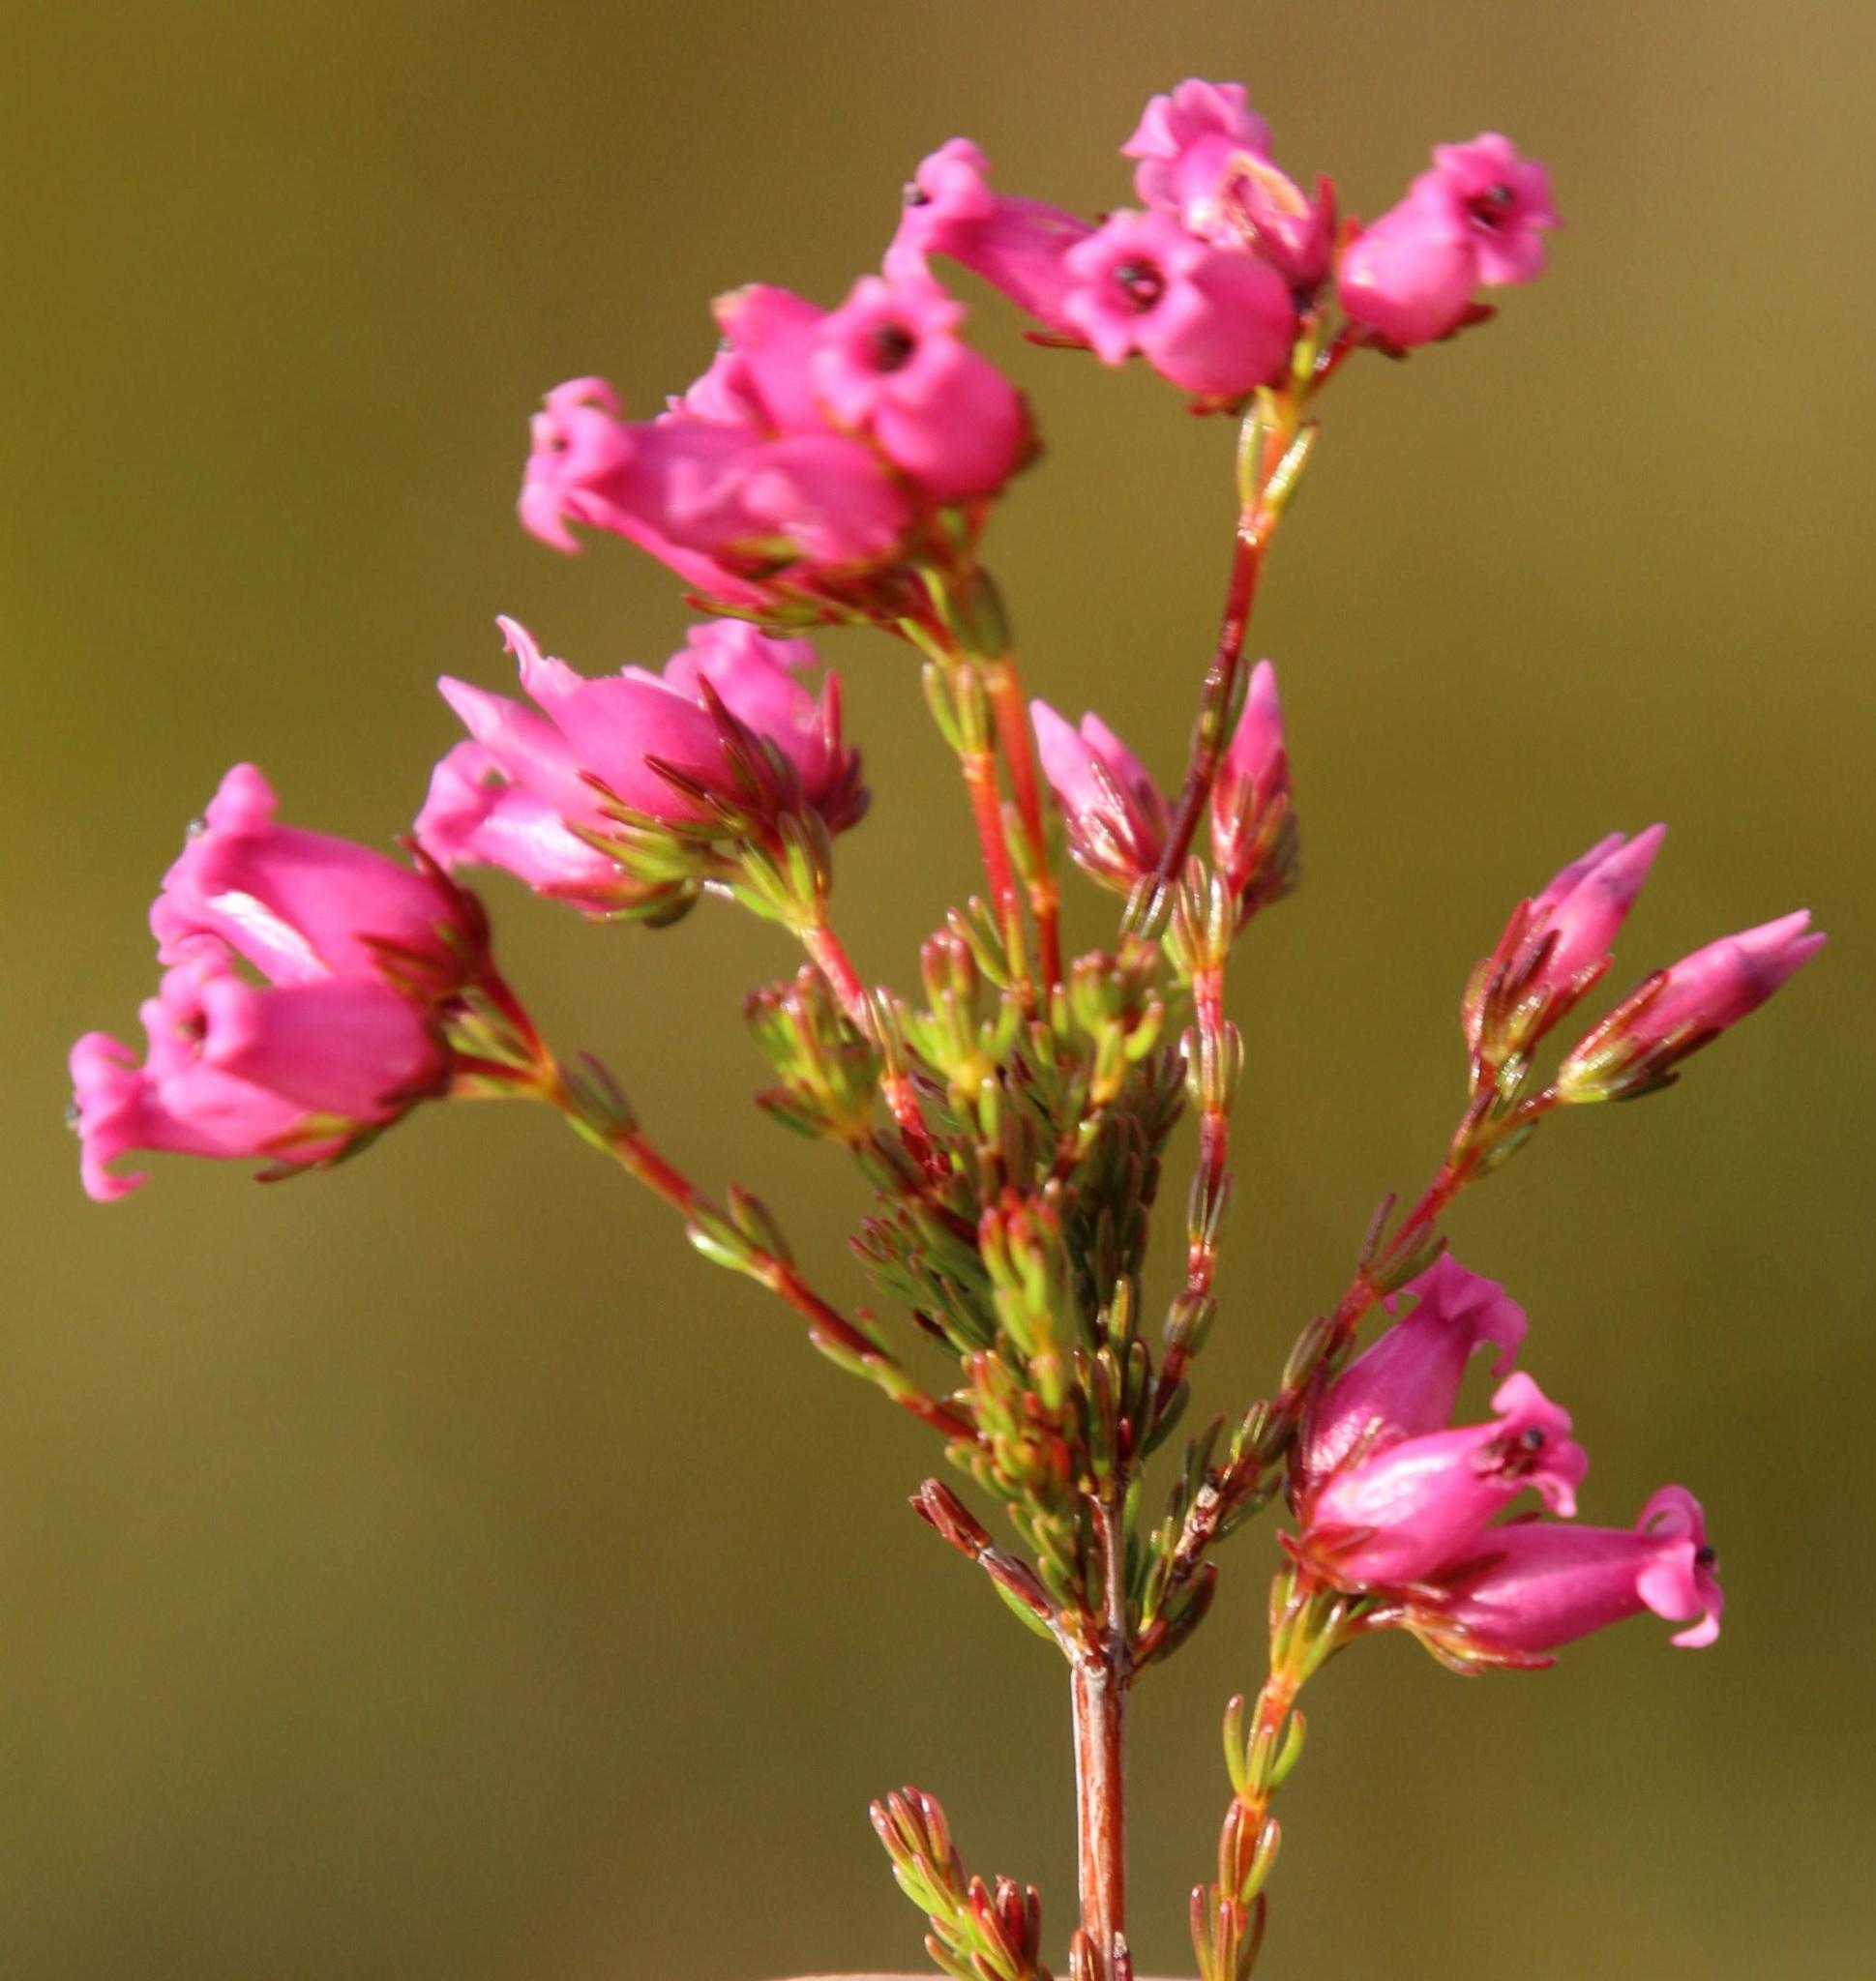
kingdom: Plantae
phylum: Tracheophyta
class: Magnoliopsida
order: Ericales
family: Ericaceae
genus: Erica
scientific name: Erica daphniflora
